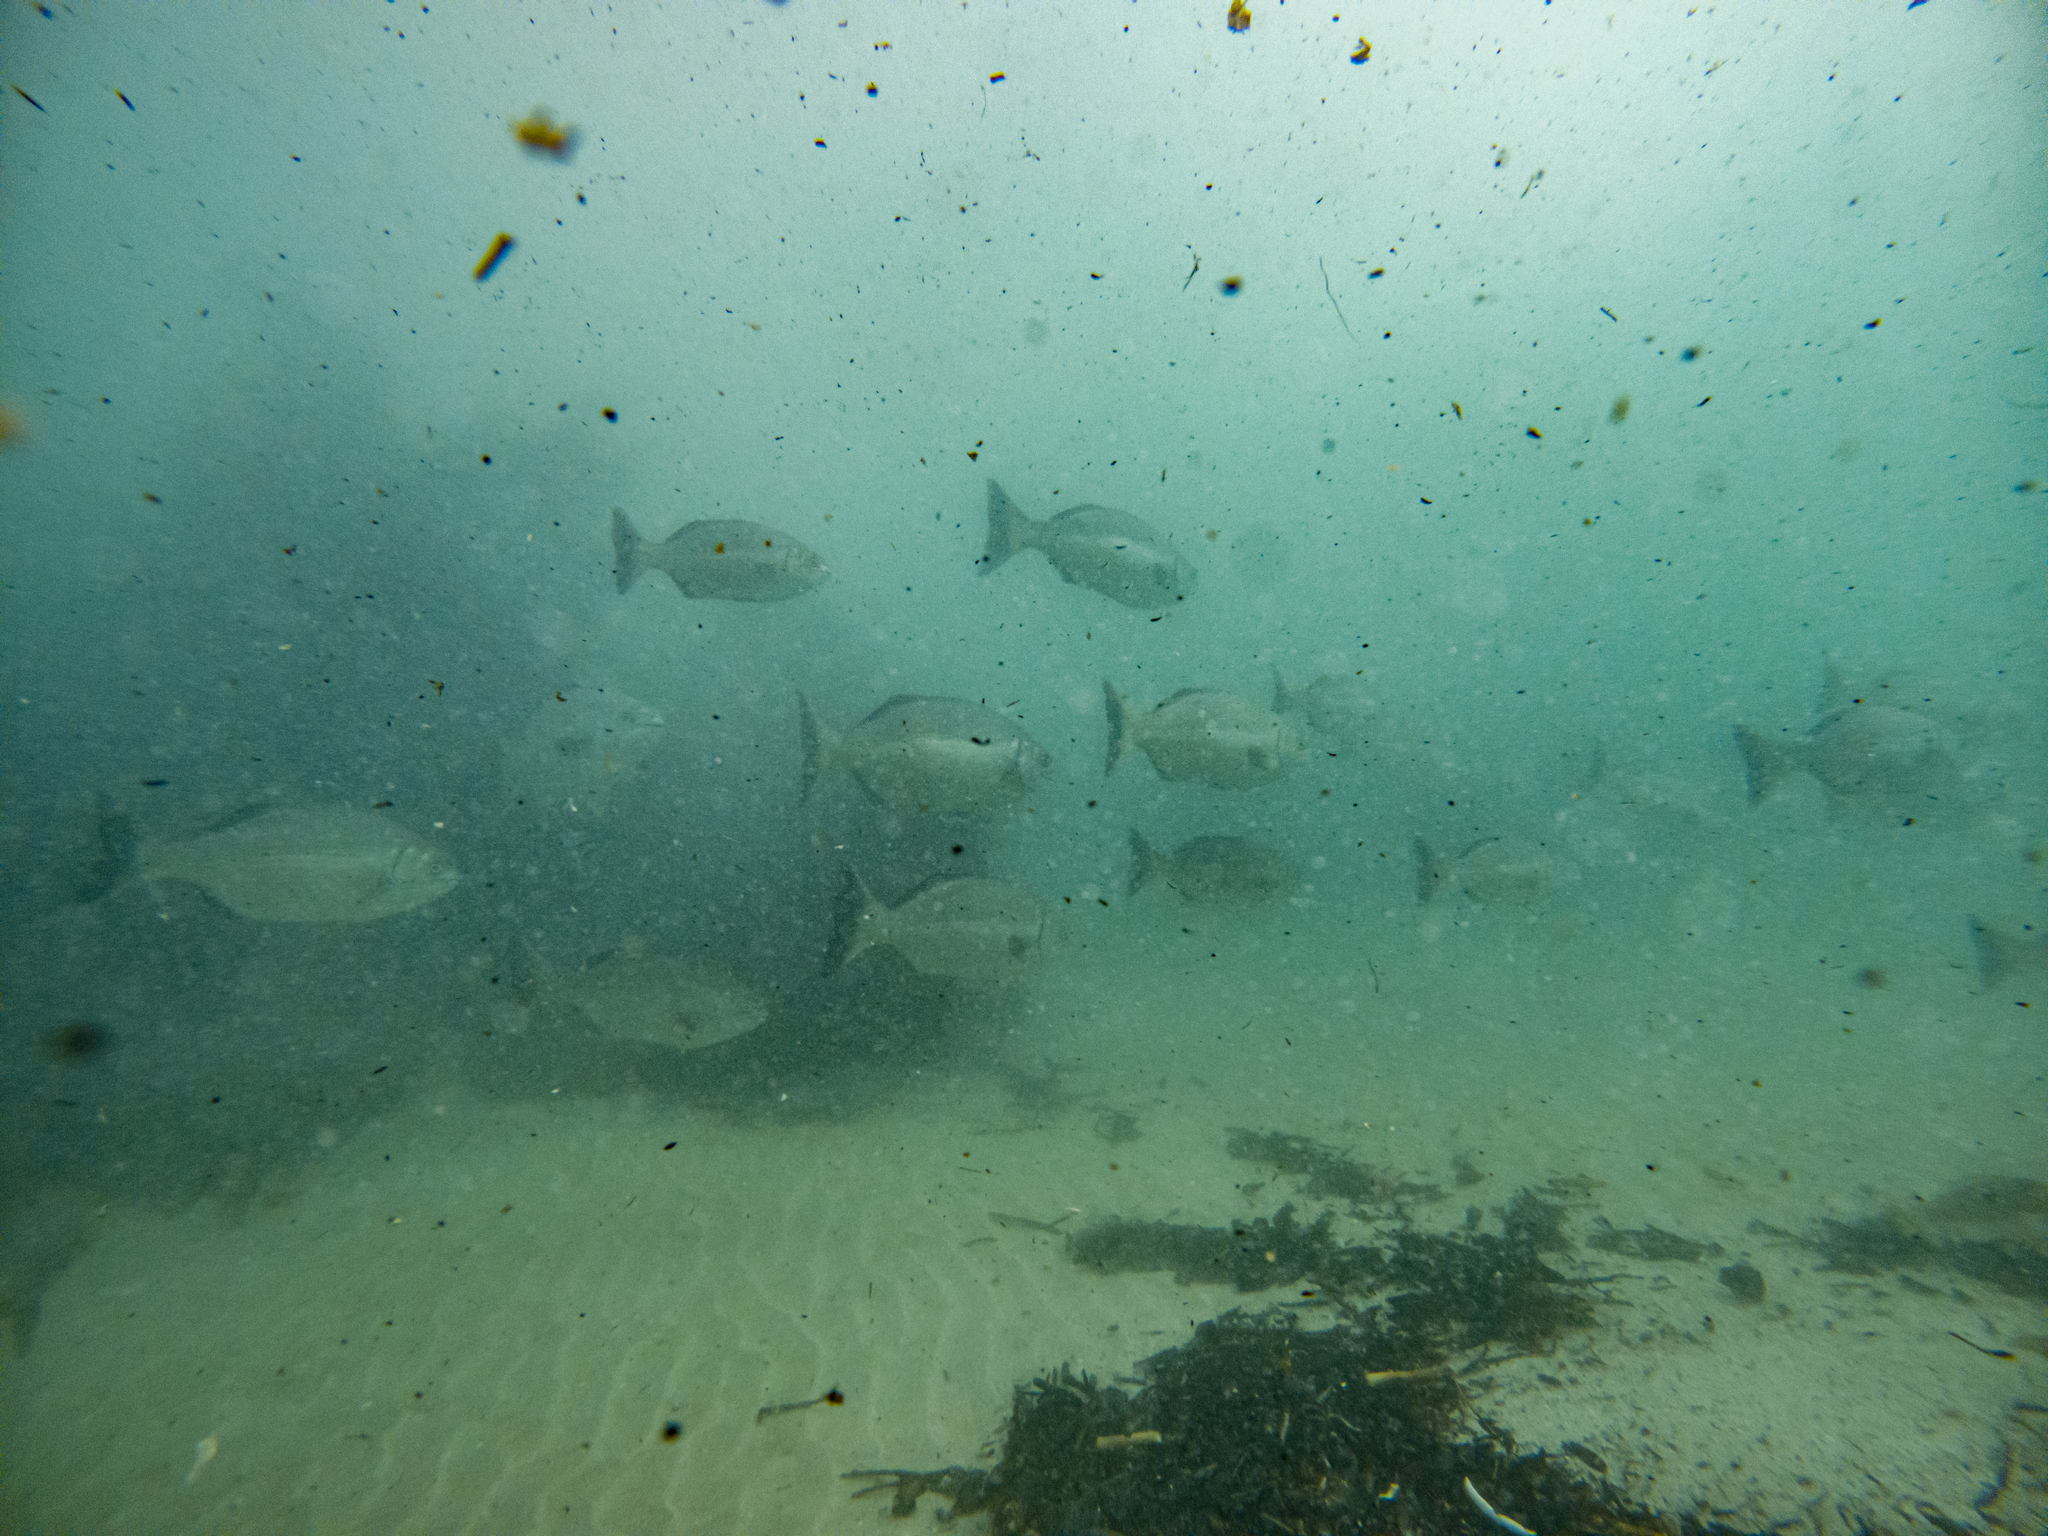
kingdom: Animalia
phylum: Chordata
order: Perciformes
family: Kyphosidae
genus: Kyphosus
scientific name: Kyphosus sydneyanus
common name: Silver drummer
